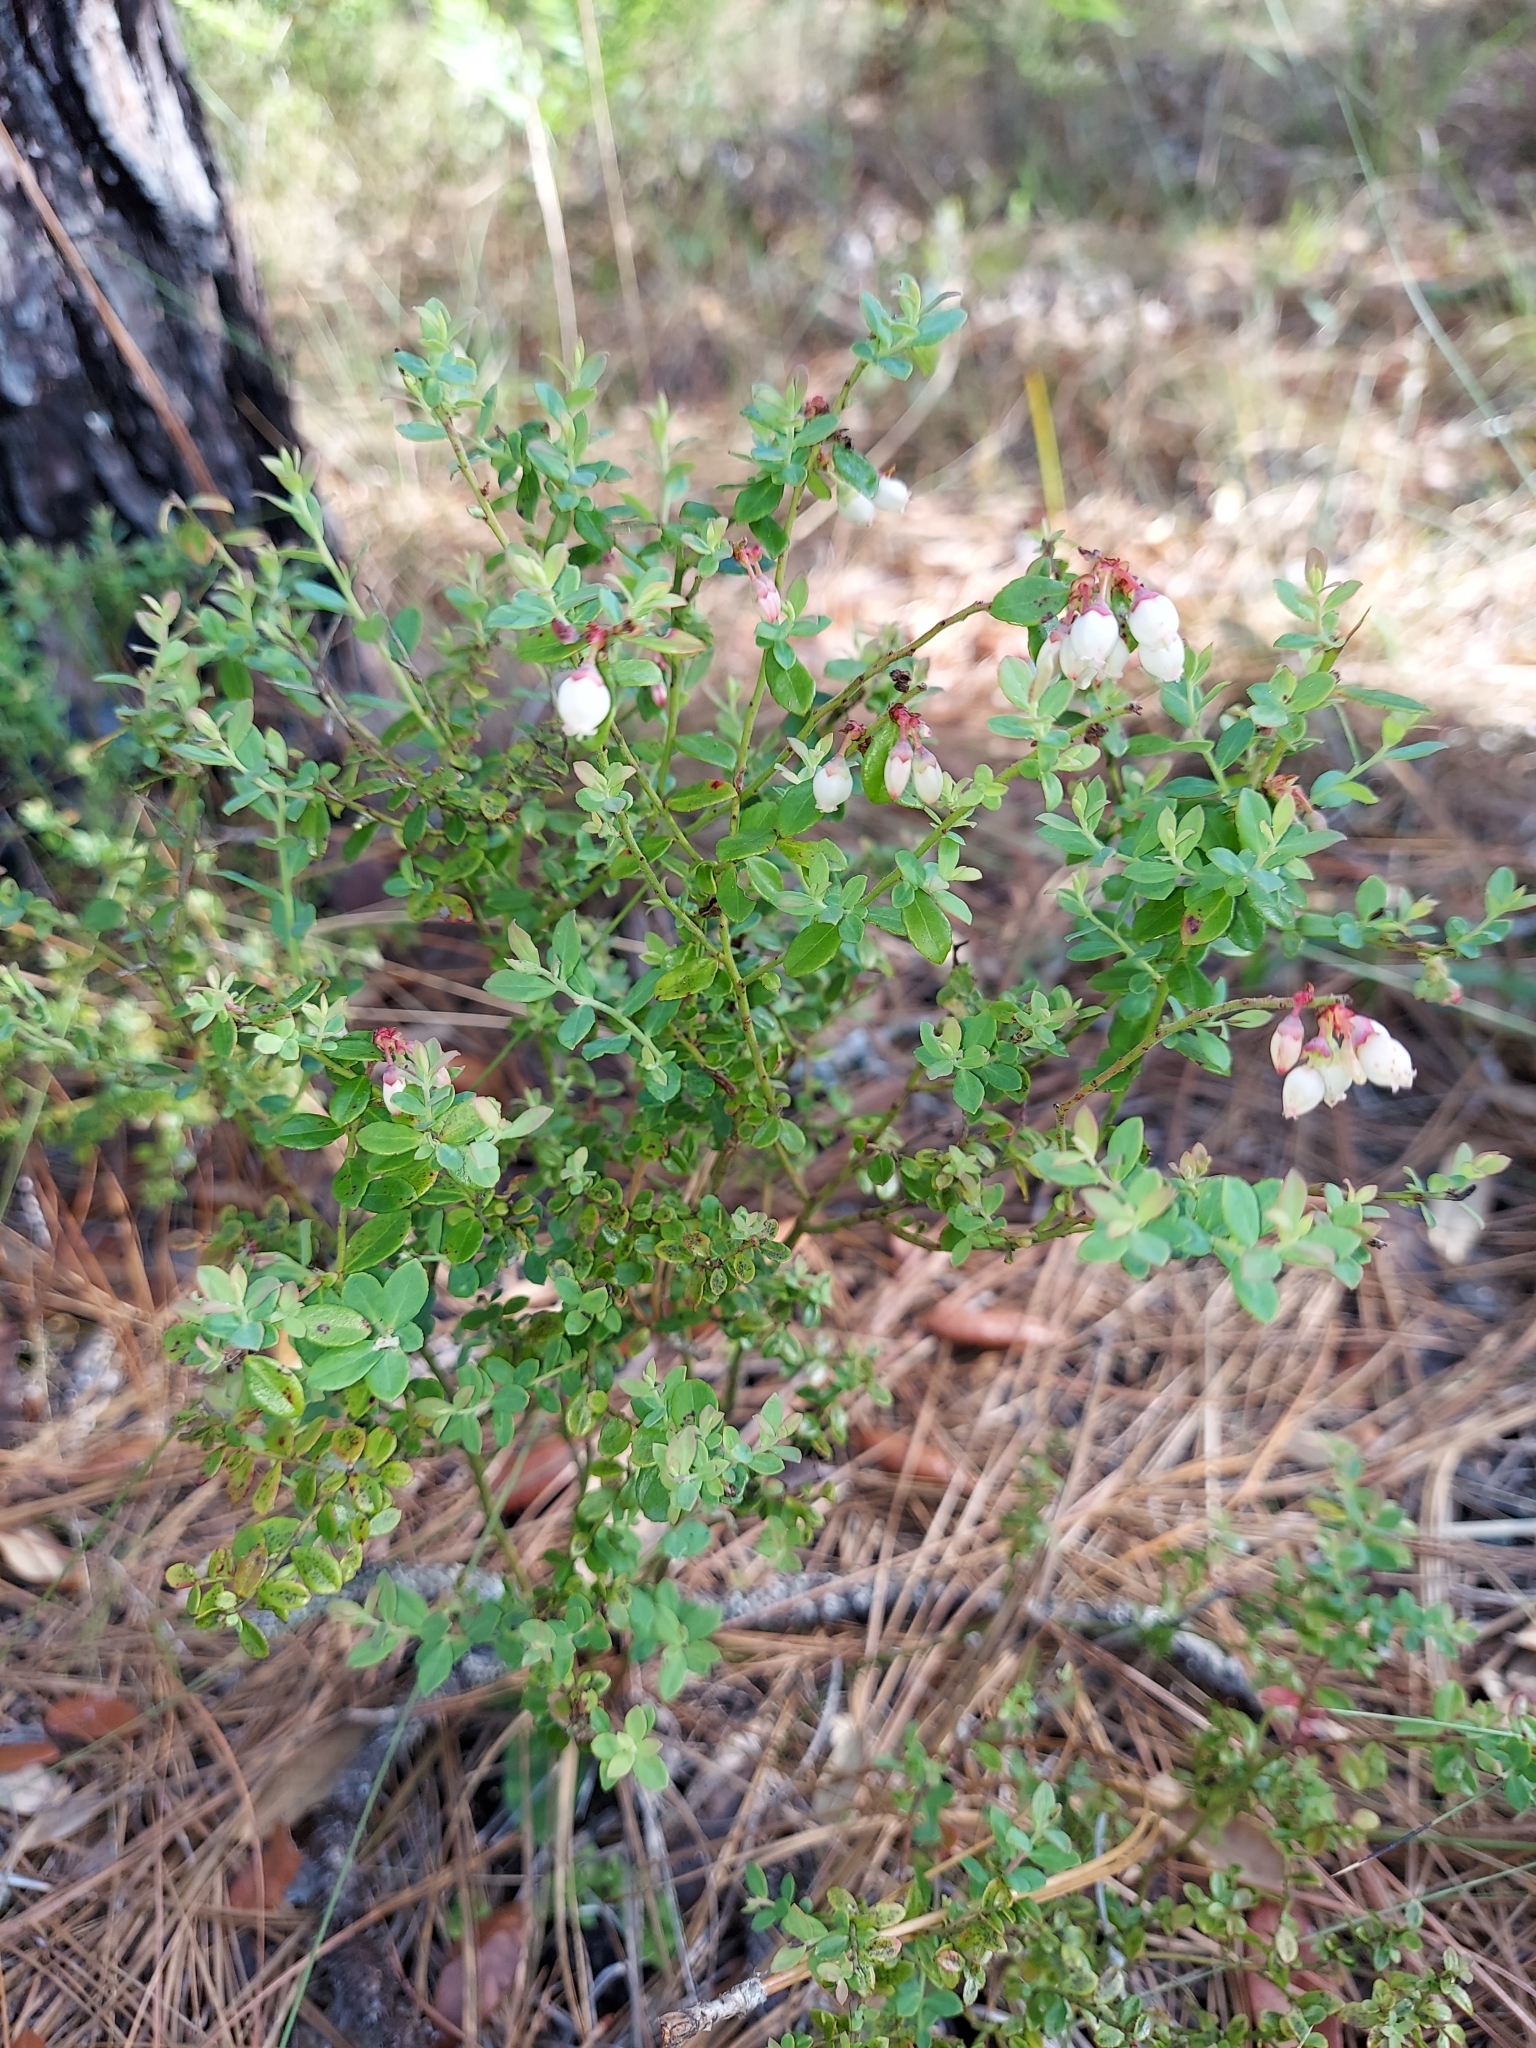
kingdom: Plantae
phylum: Tracheophyta
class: Magnoliopsida
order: Ericales
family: Ericaceae
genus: Vaccinium
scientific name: Vaccinium darrowii
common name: Darrow's blueberry
